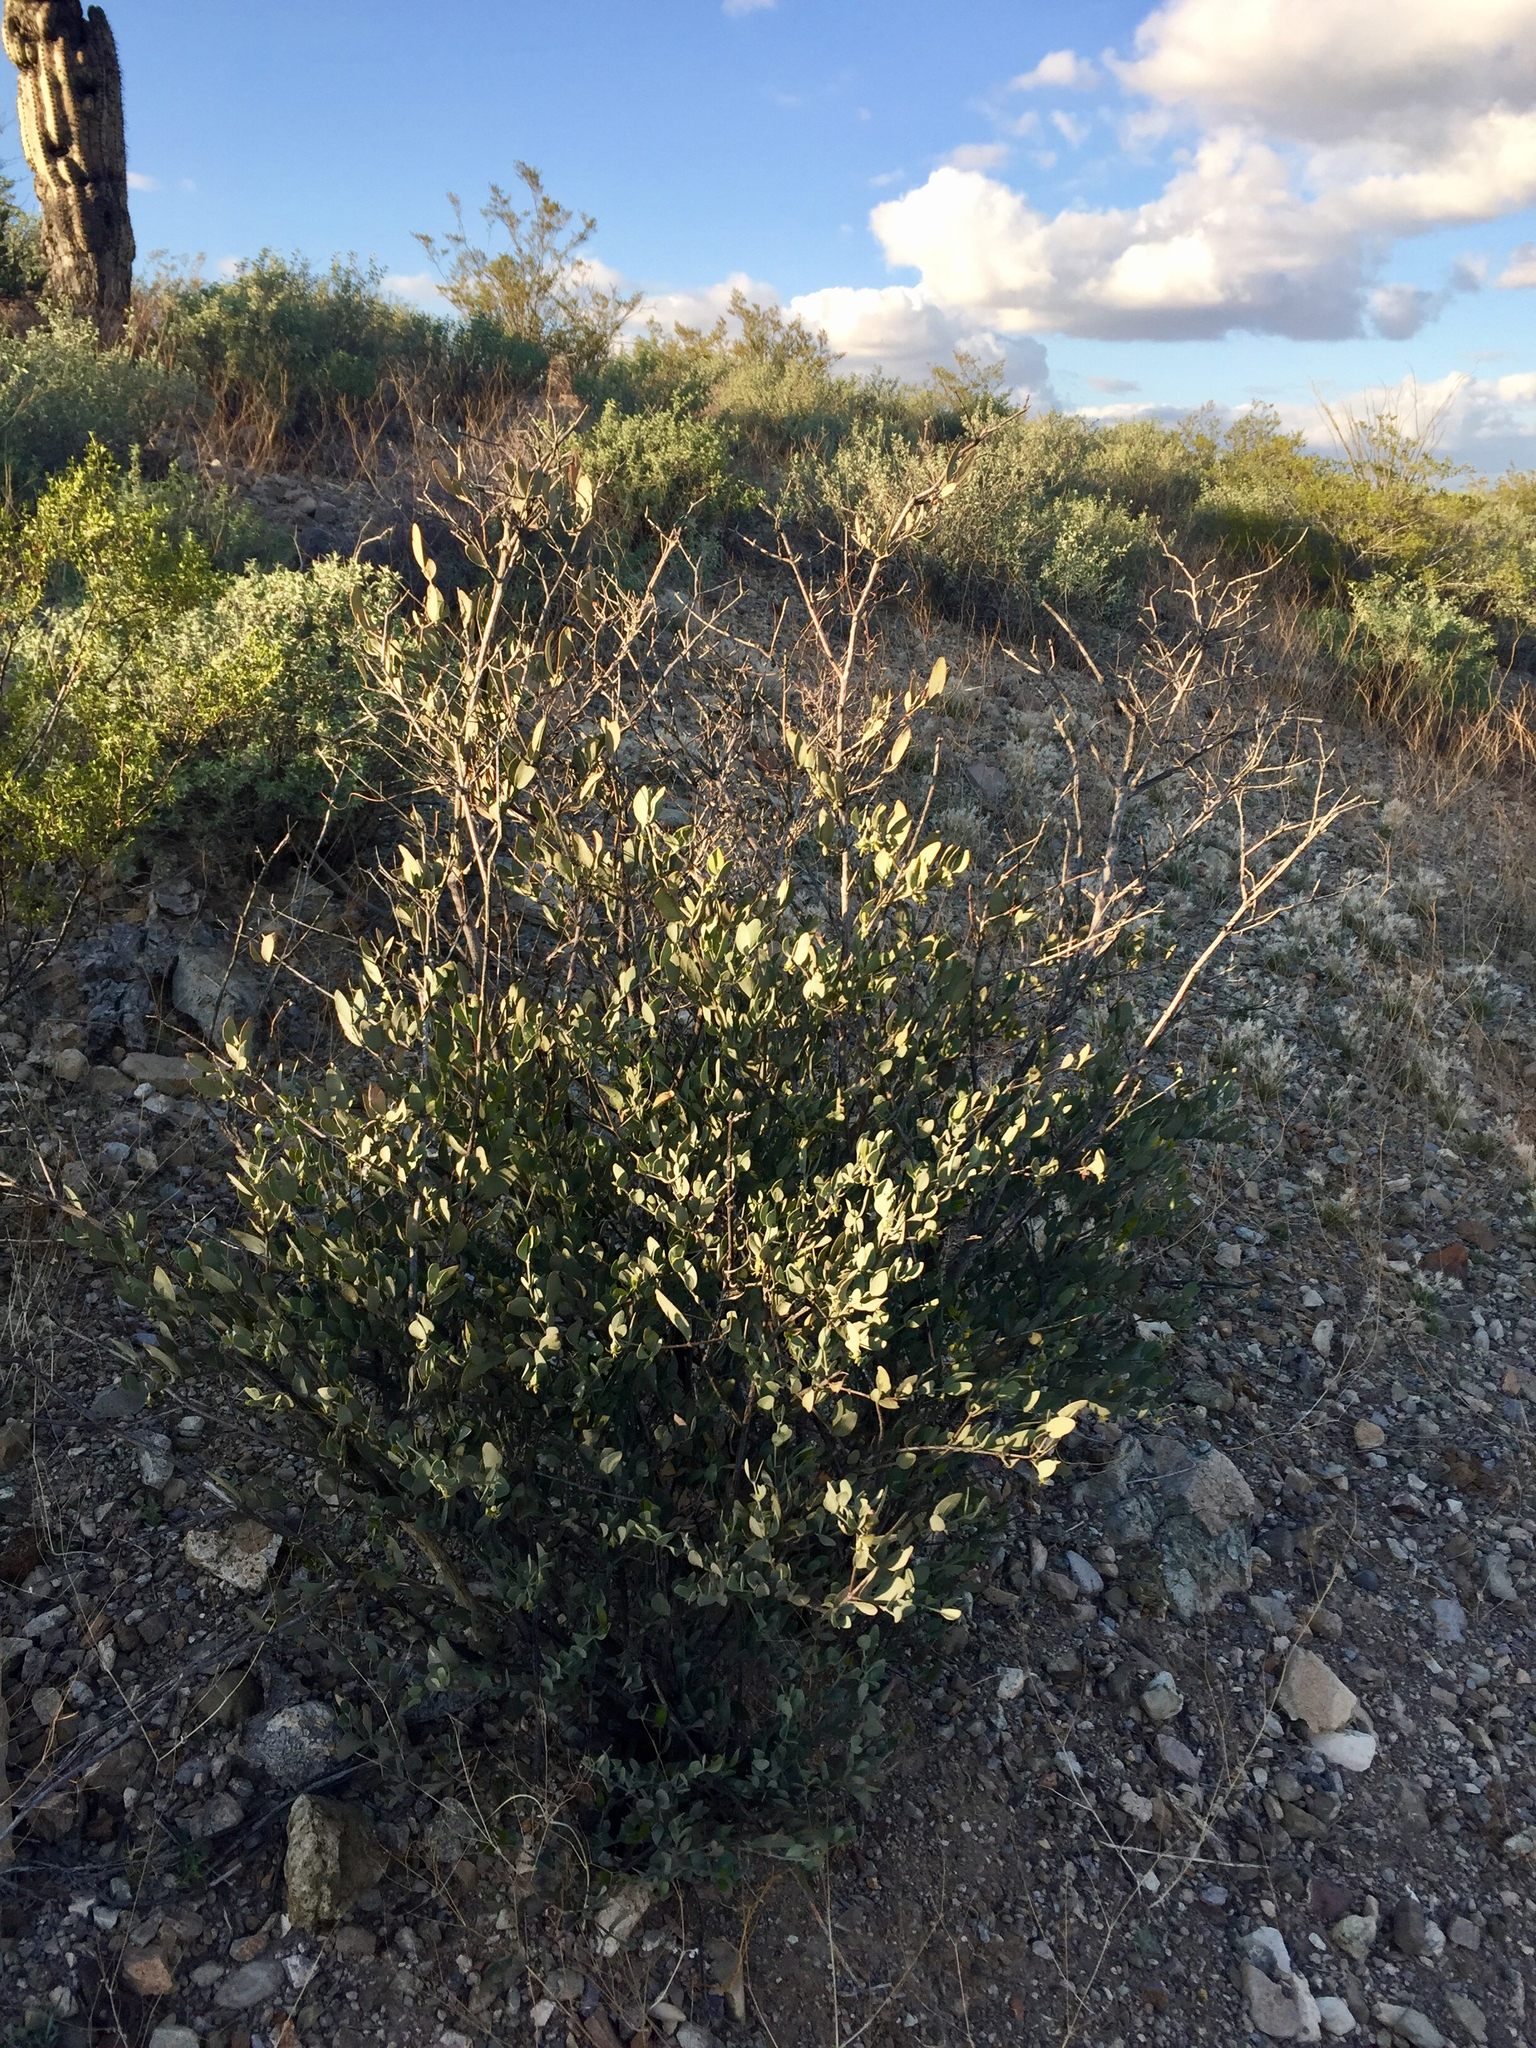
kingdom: Plantae
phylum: Tracheophyta
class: Magnoliopsida
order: Caryophyllales
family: Simmondsiaceae
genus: Simmondsia
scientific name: Simmondsia chinensis
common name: Jojoba
